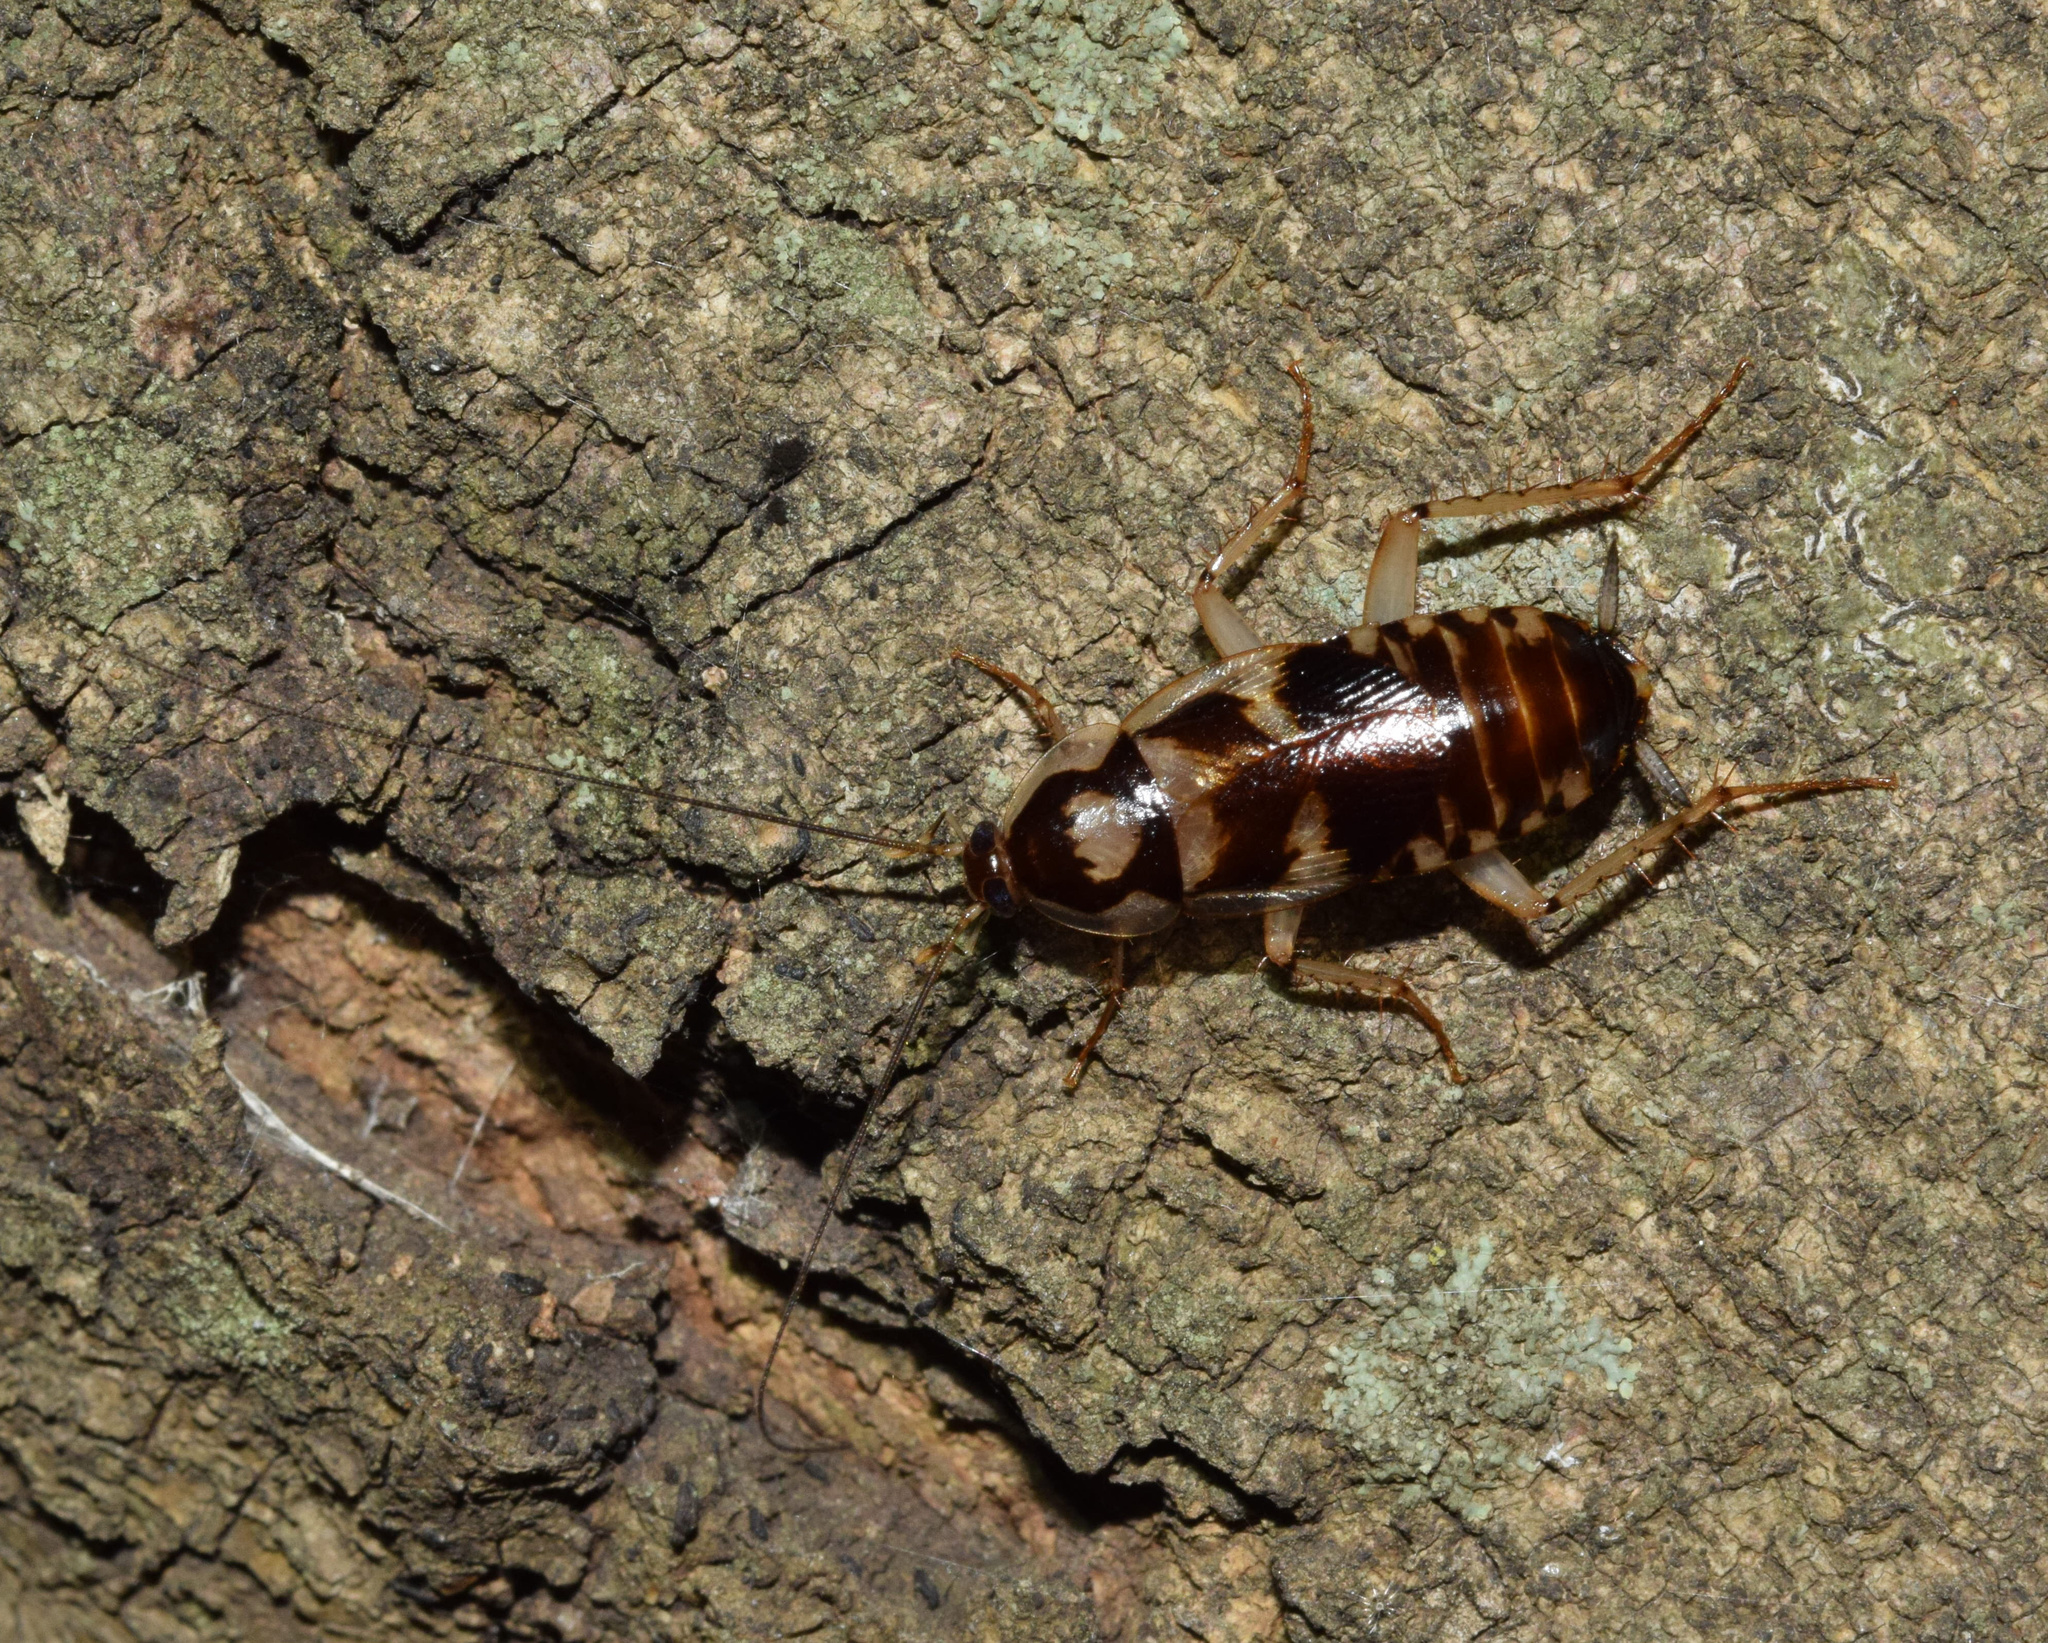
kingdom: Animalia
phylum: Arthropoda
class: Insecta
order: Blattodea
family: Ectobiidae
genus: Supella
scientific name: Supella dimidiata
